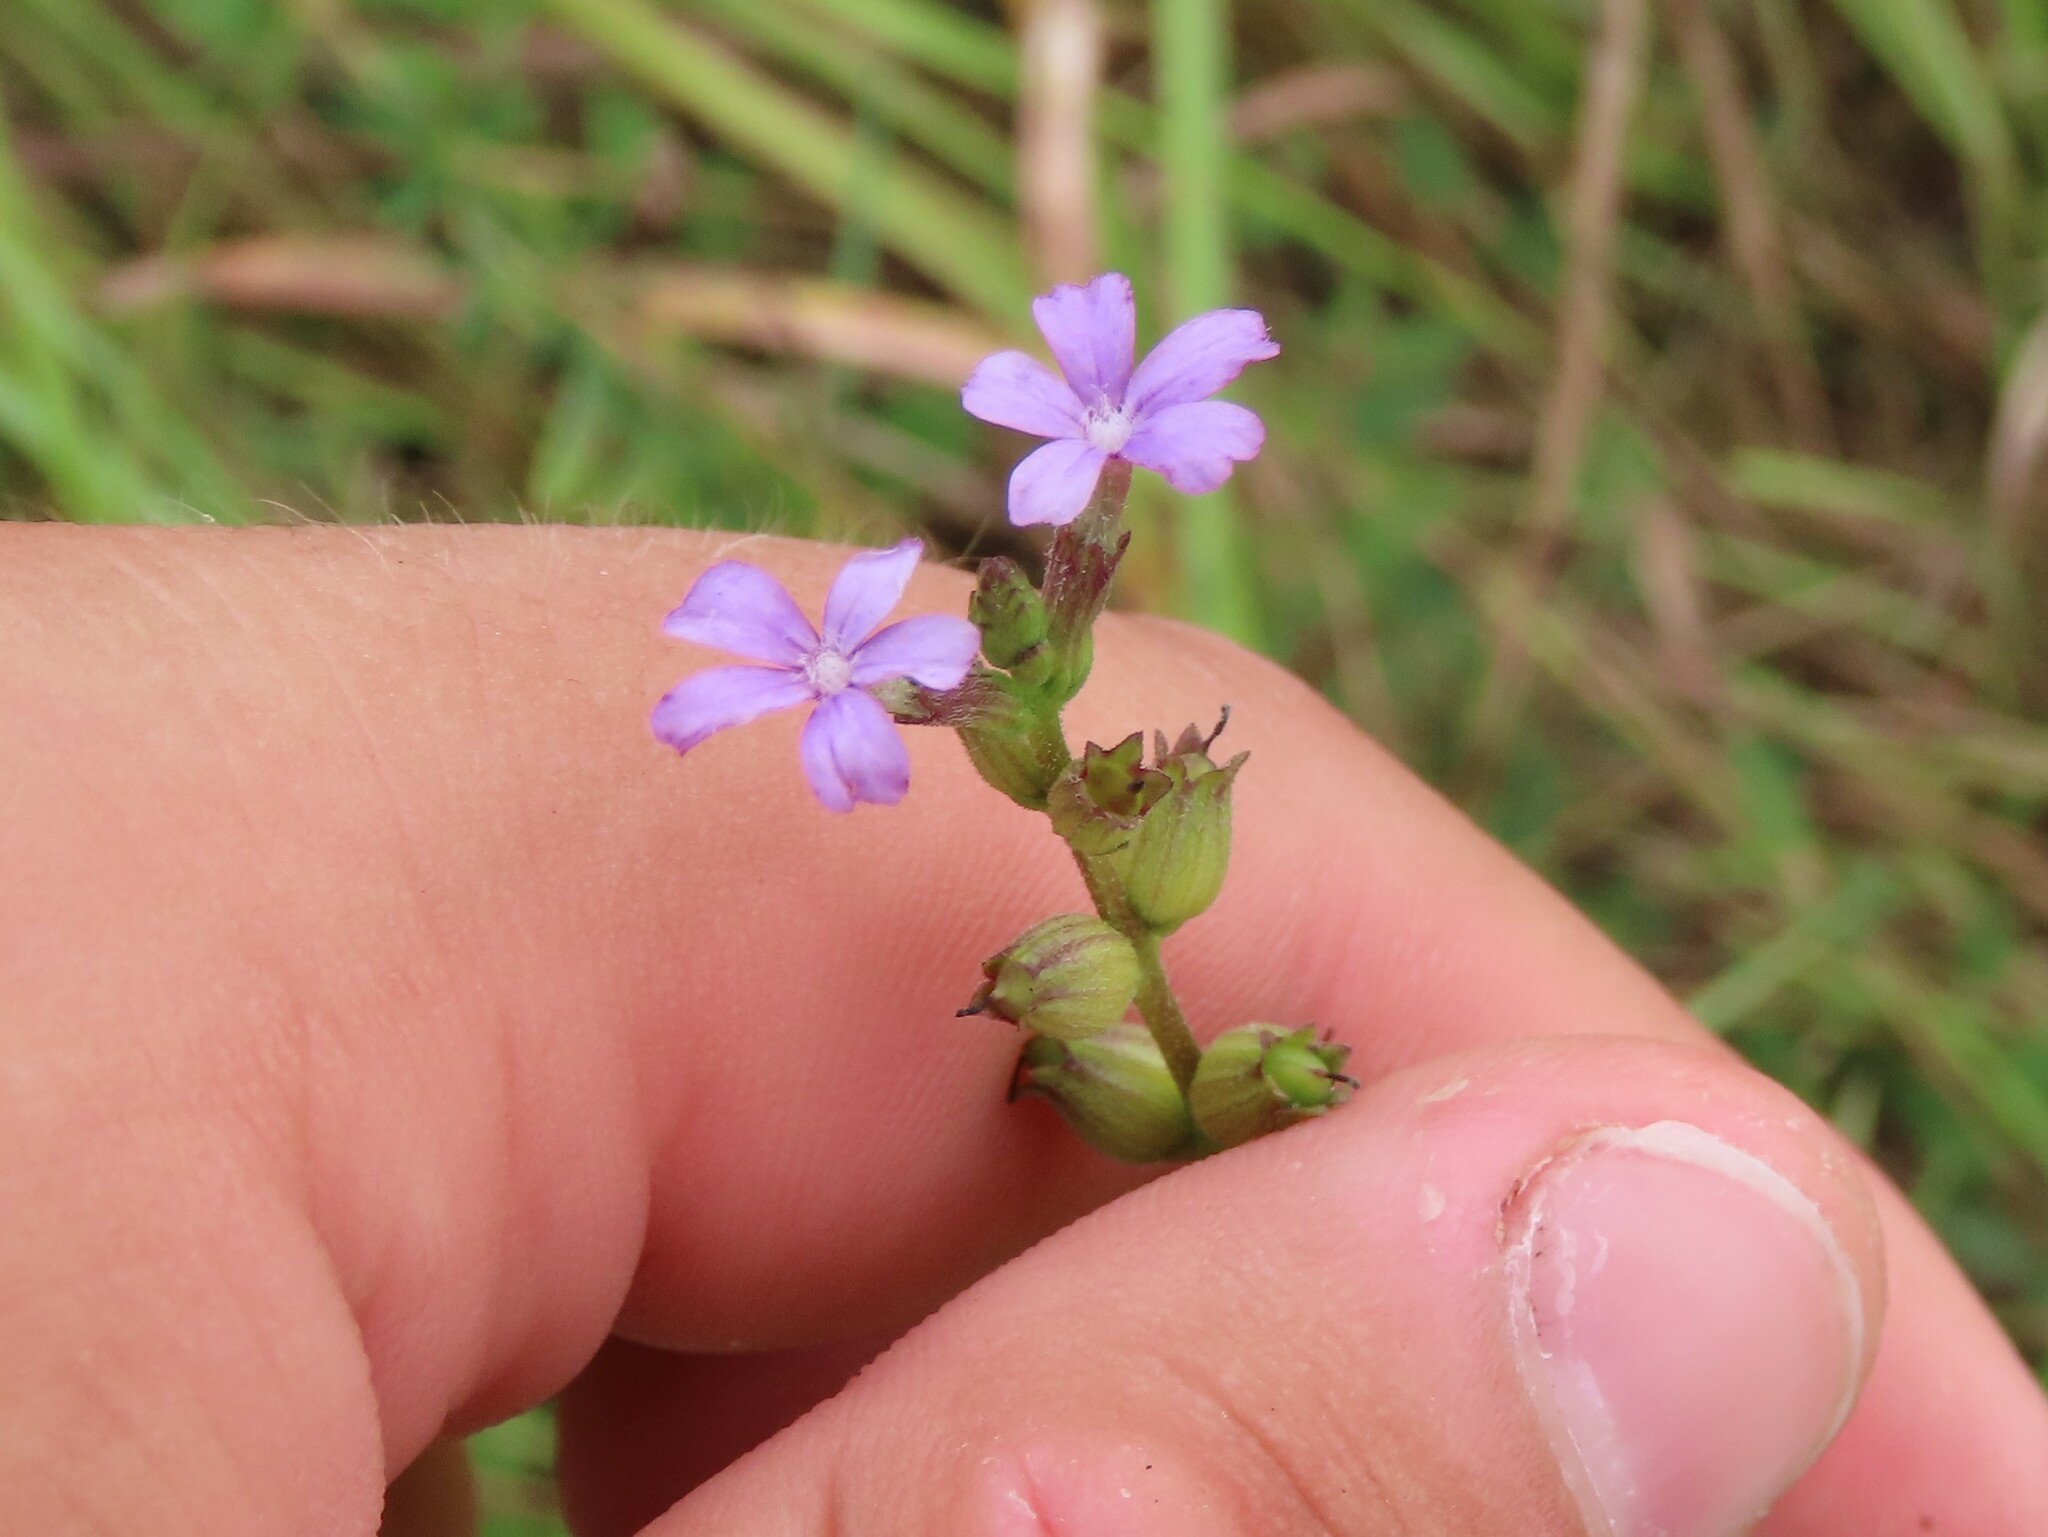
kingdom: Plantae
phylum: Tracheophyta
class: Magnoliopsida
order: Lamiales
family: Orobanchaceae
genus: Buchnera
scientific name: Buchnera floridana
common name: Florida bluehearts
